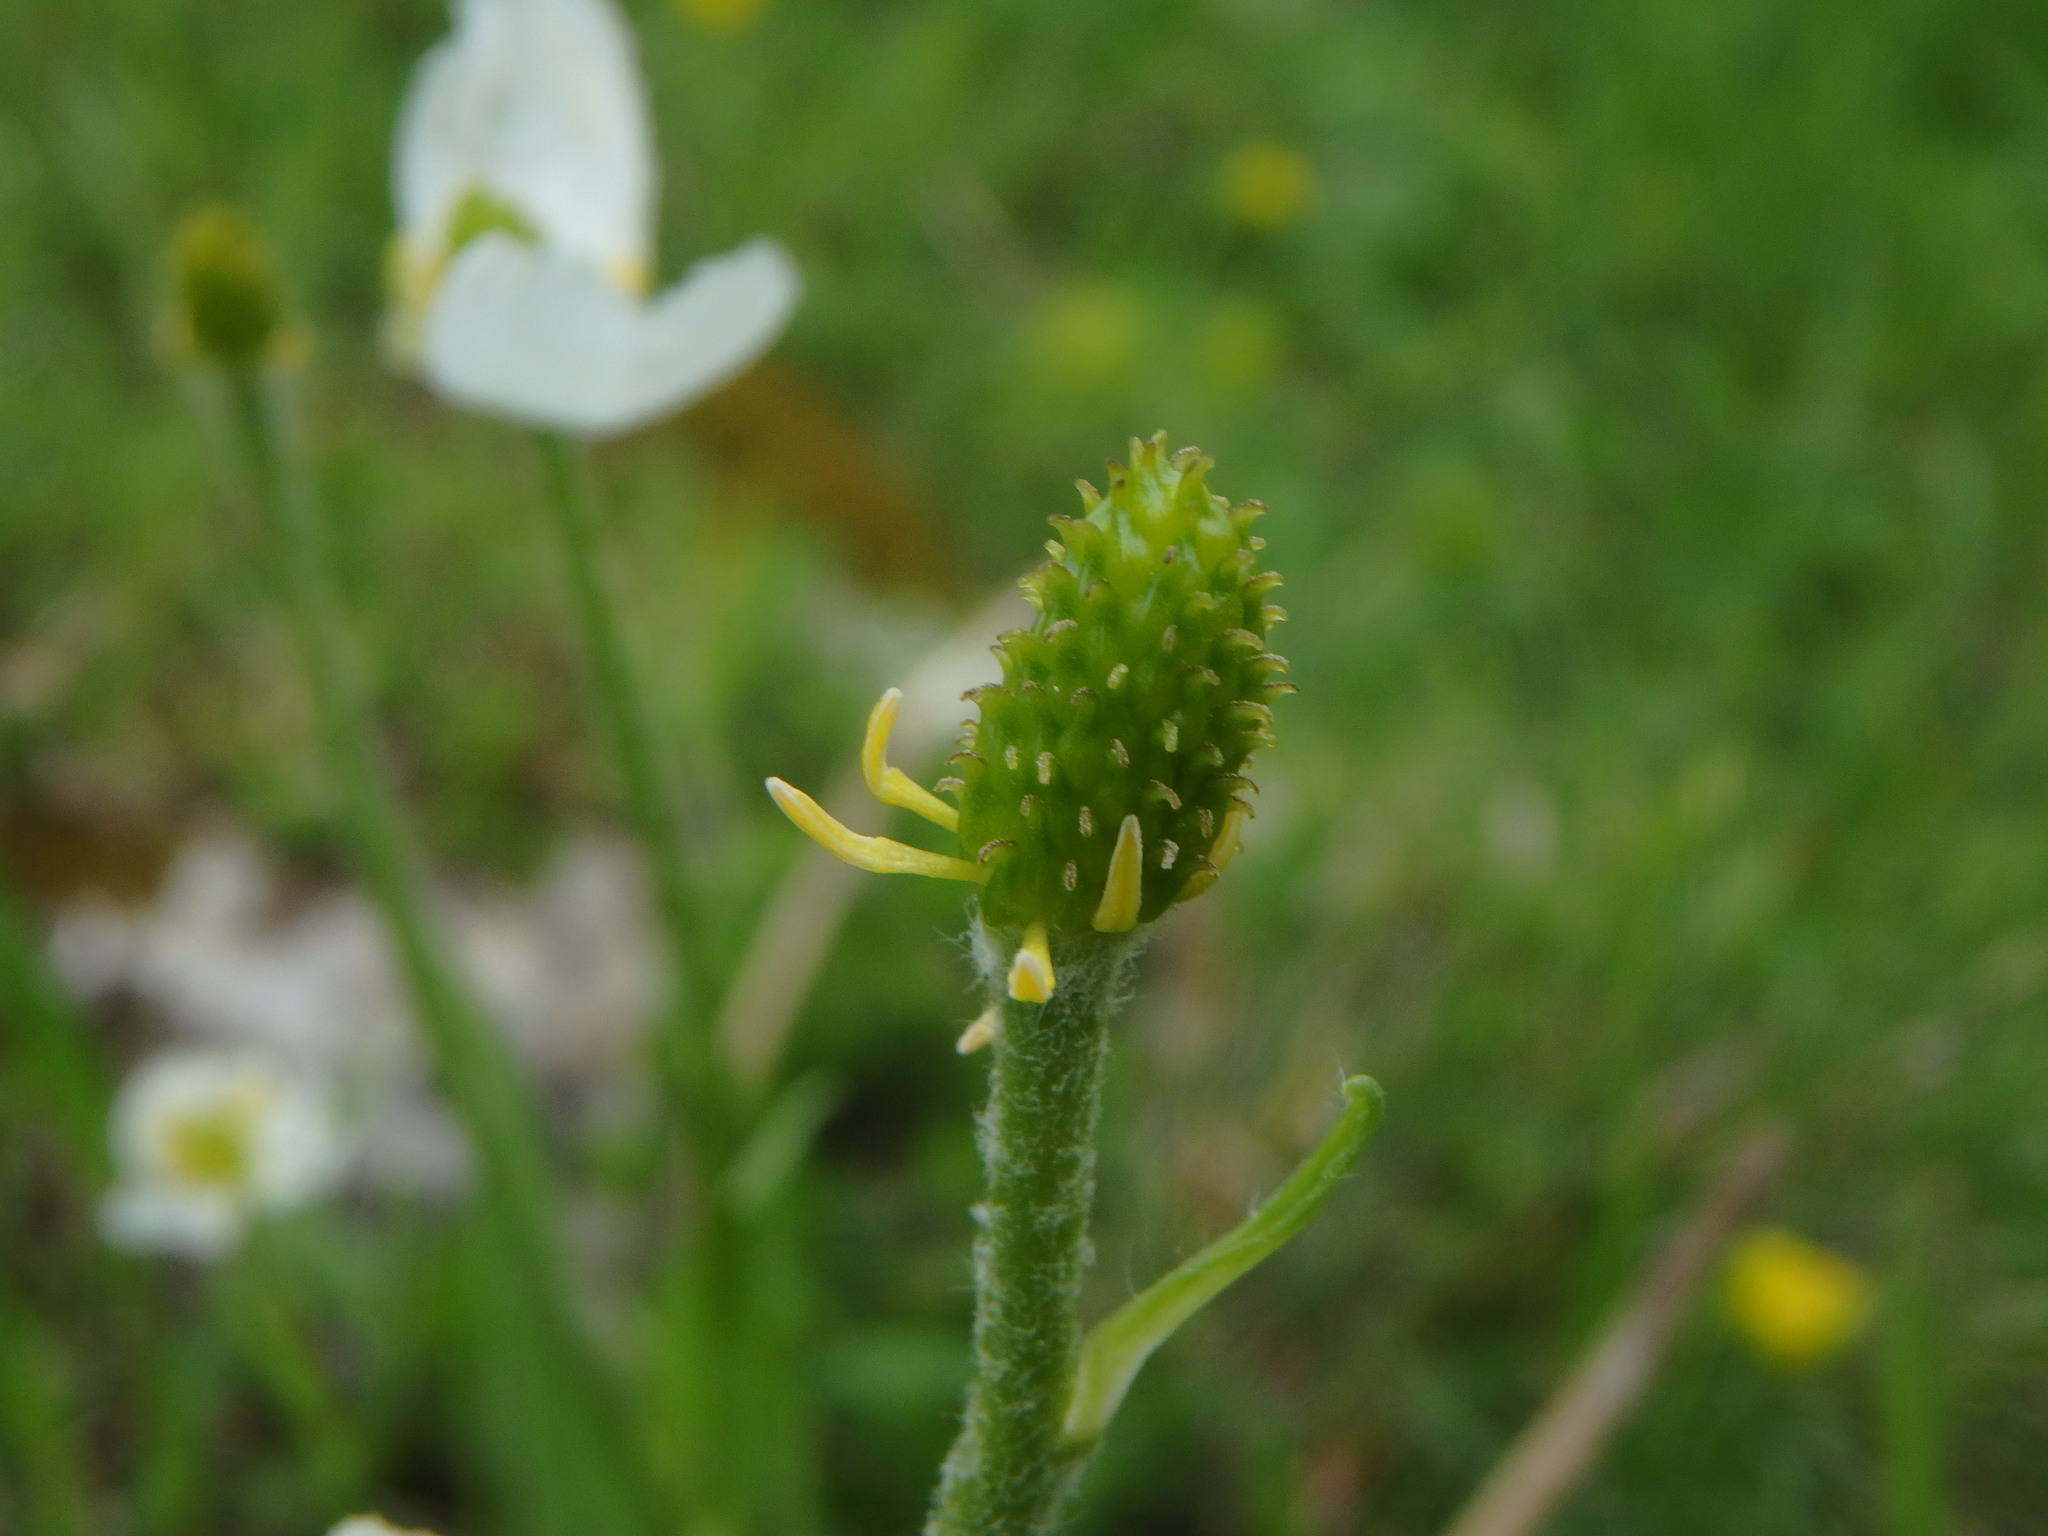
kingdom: Plantae
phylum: Tracheophyta
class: Magnoliopsida
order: Ranunculales
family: Ranunculaceae
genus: Ranunculus
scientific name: Ranunculus kuepferi
